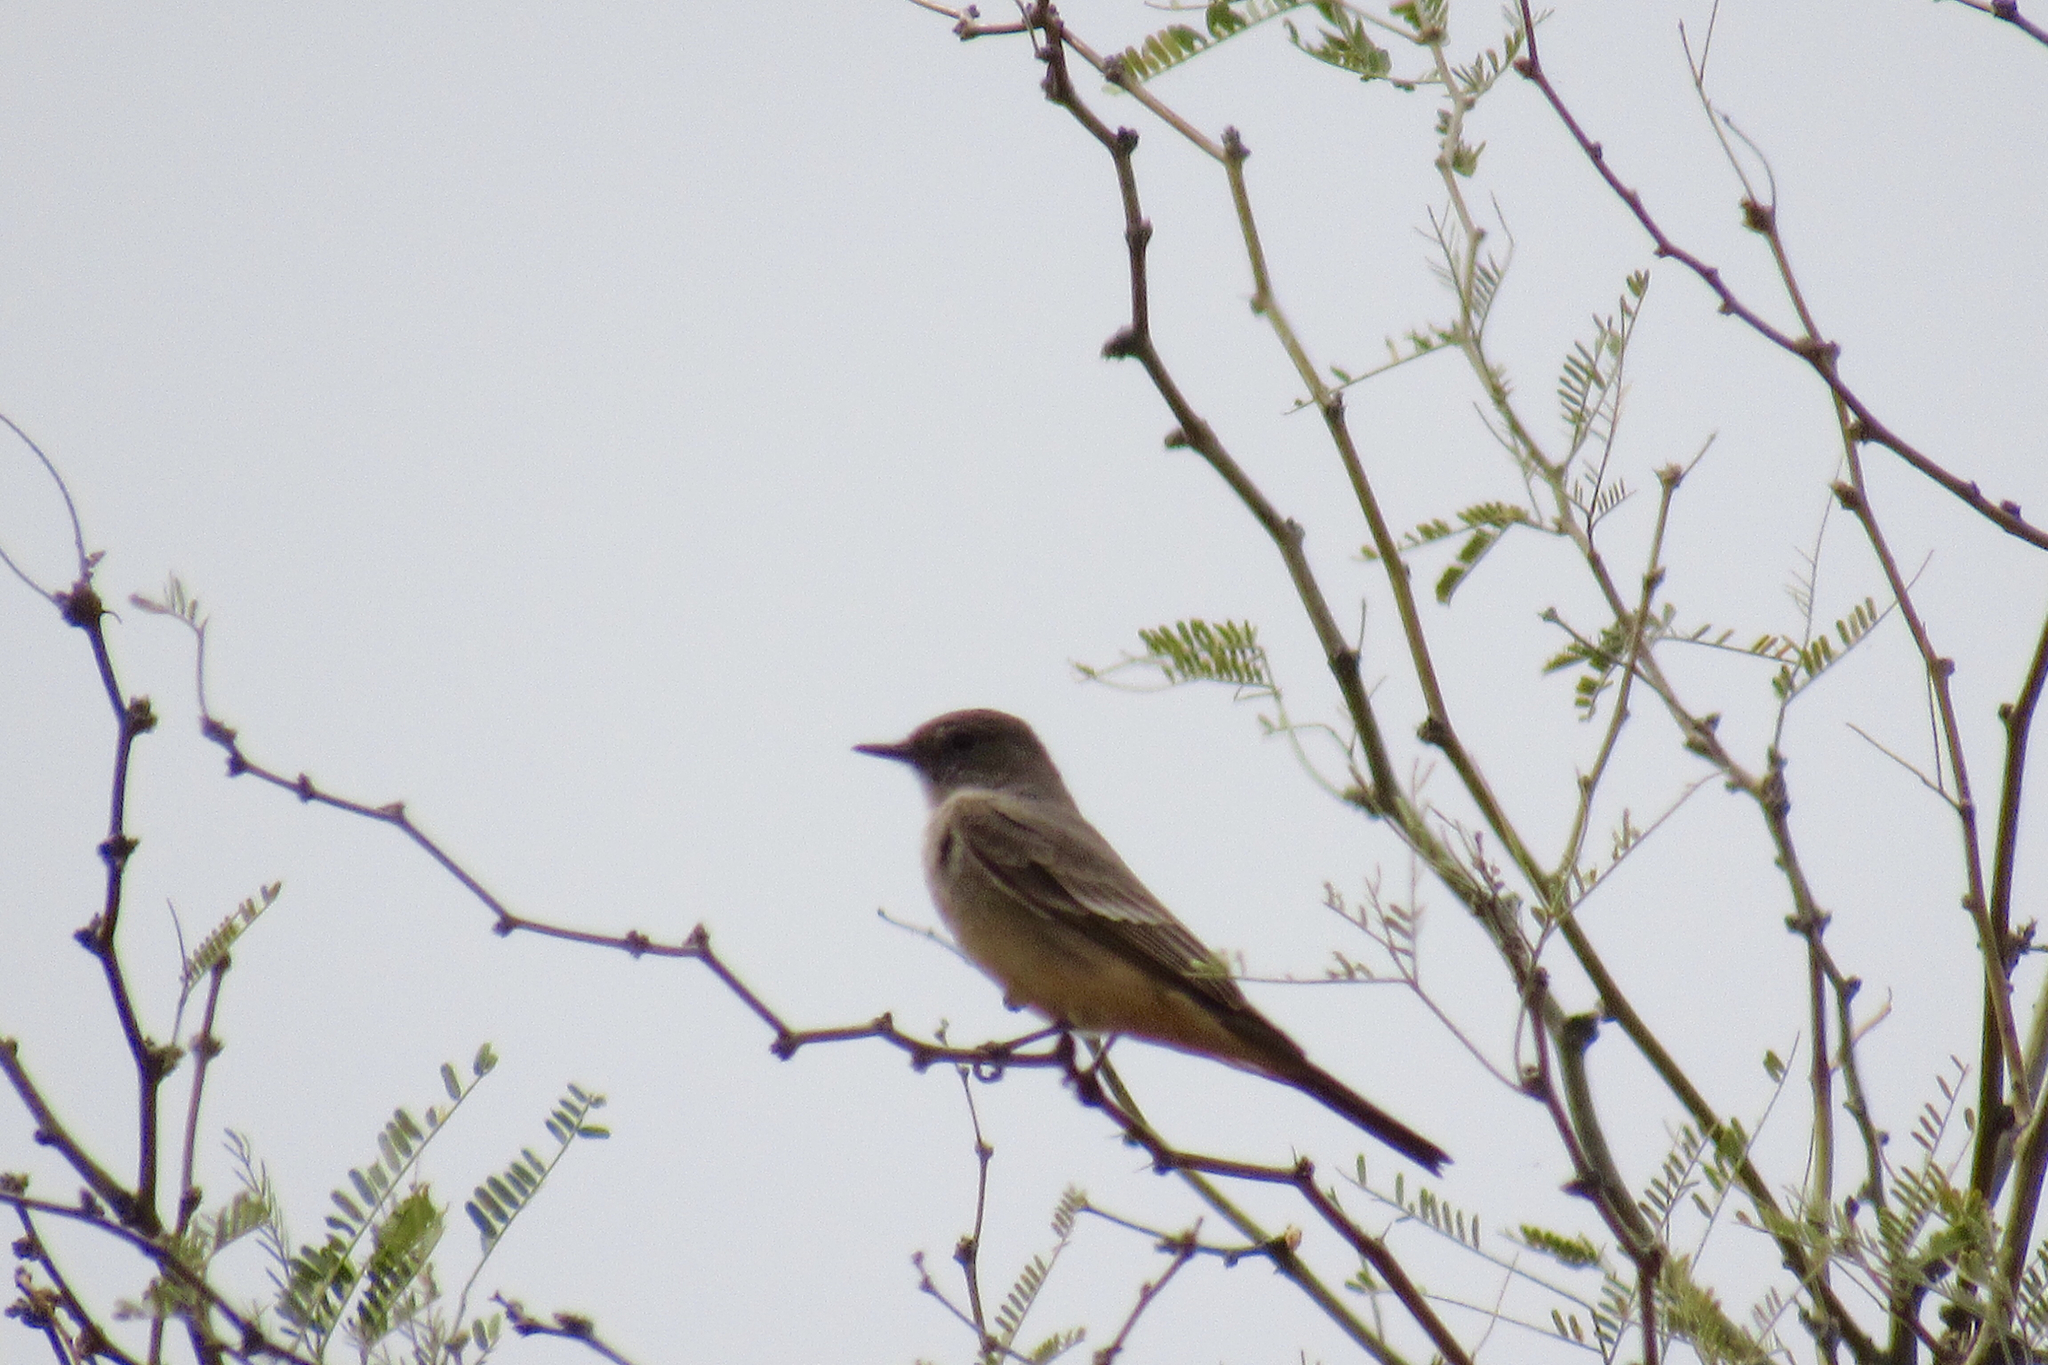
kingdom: Animalia
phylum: Chordata
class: Aves
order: Passeriformes
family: Tyrannidae
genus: Sayornis
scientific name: Sayornis saya
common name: Say's phoebe
